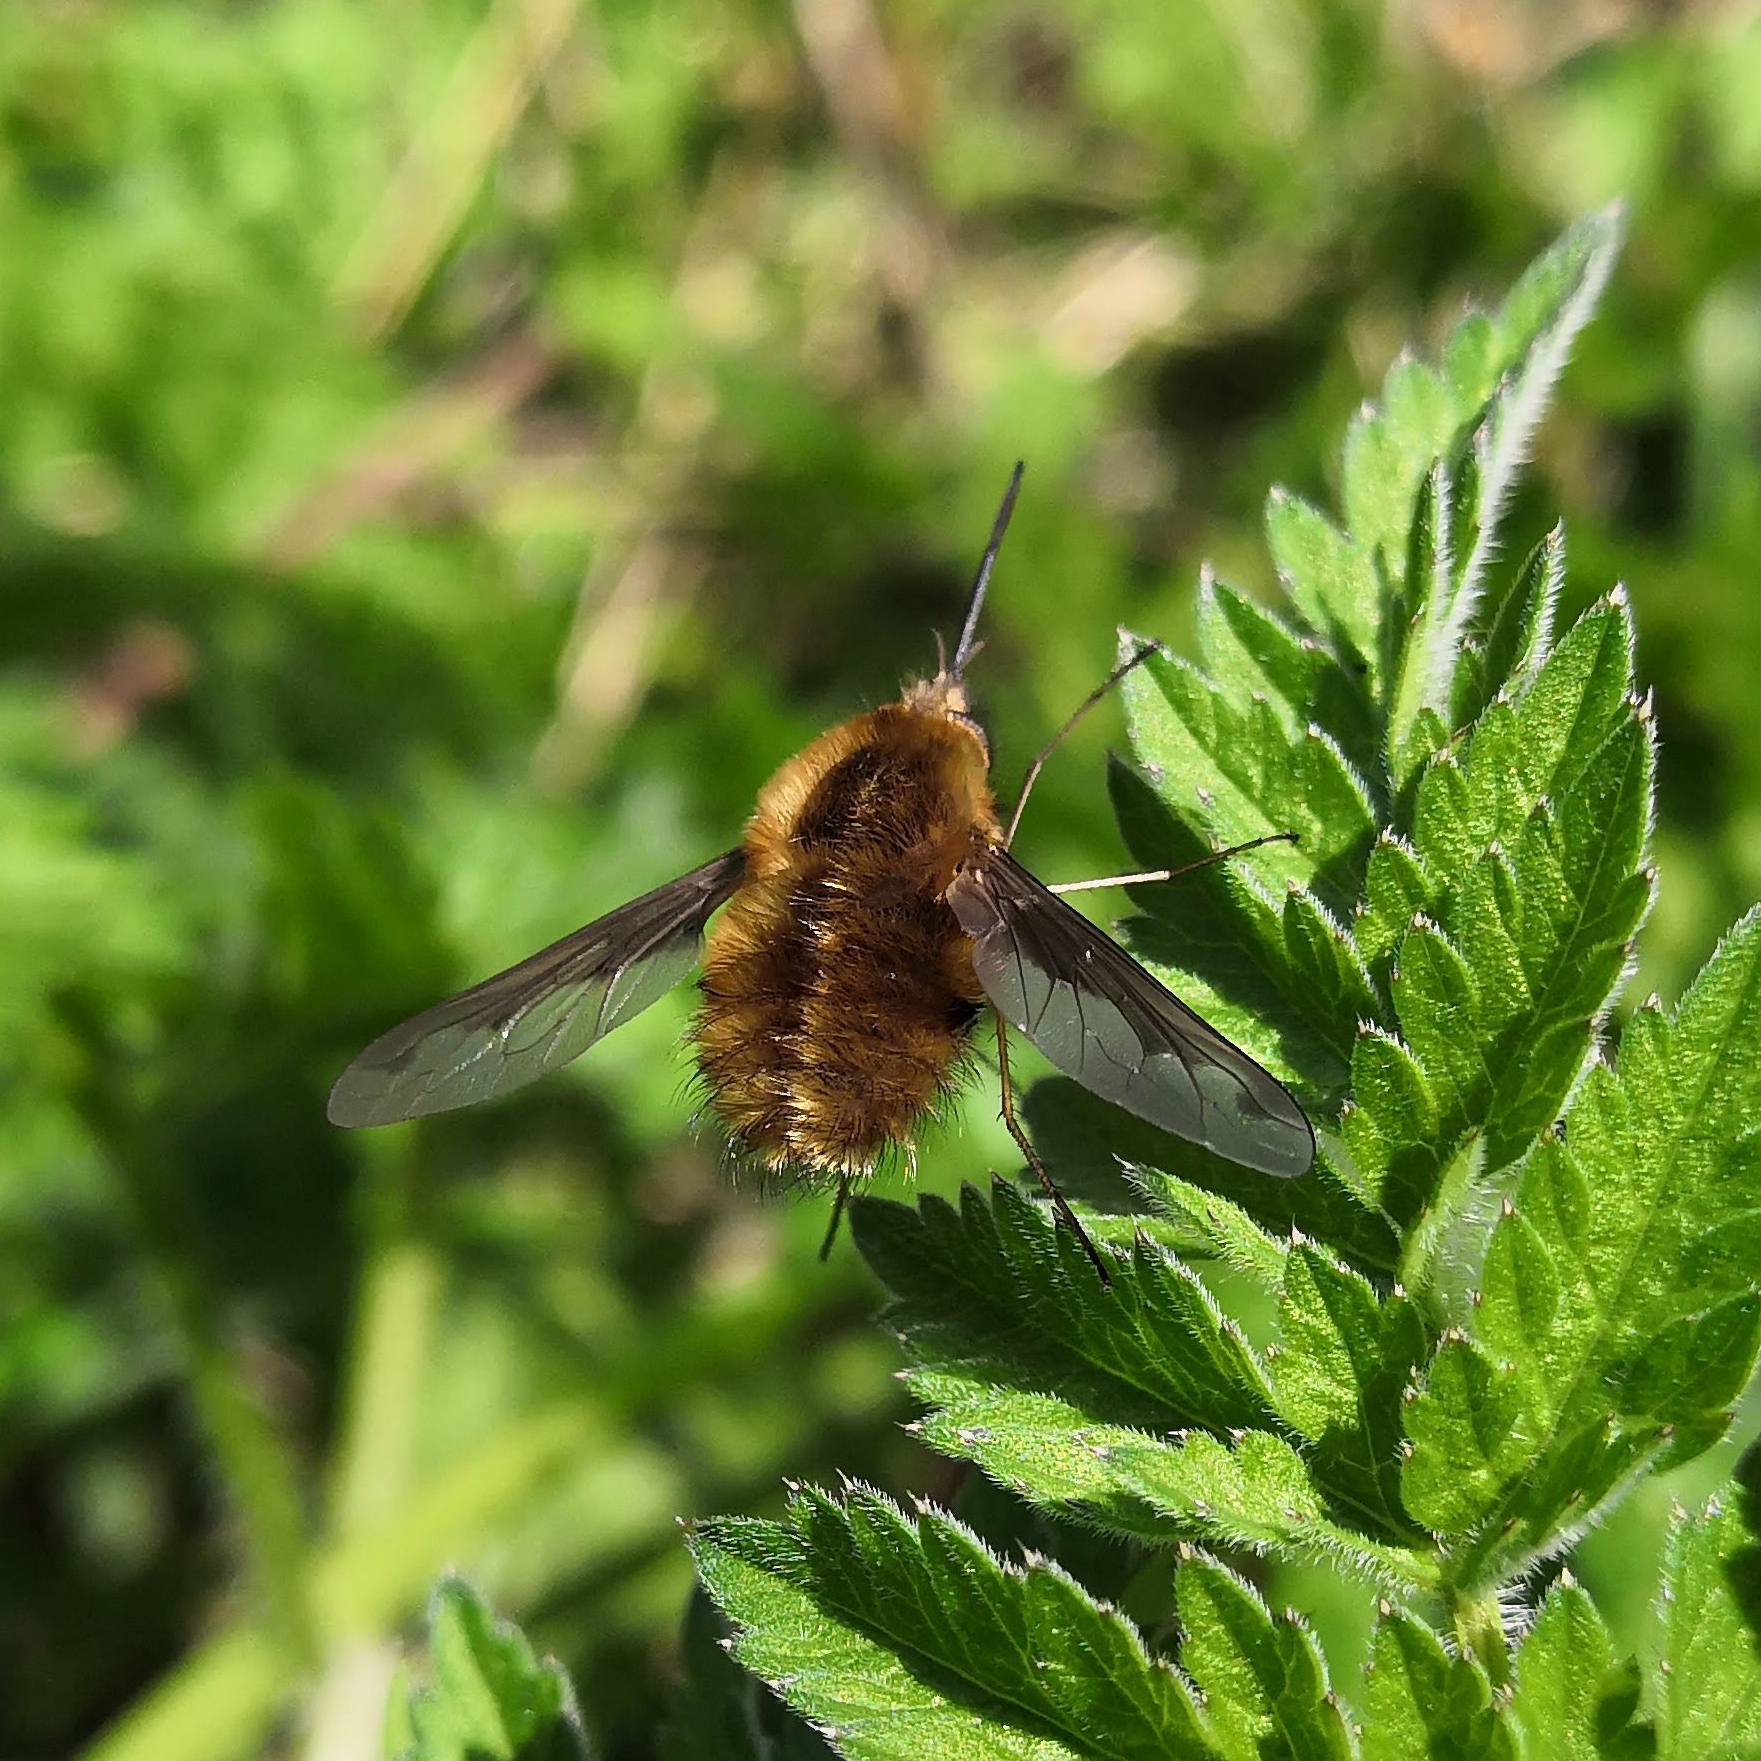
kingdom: Animalia
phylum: Arthropoda
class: Insecta
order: Diptera
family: Bombyliidae
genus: Bombylius
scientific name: Bombylius major
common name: Bee fly
